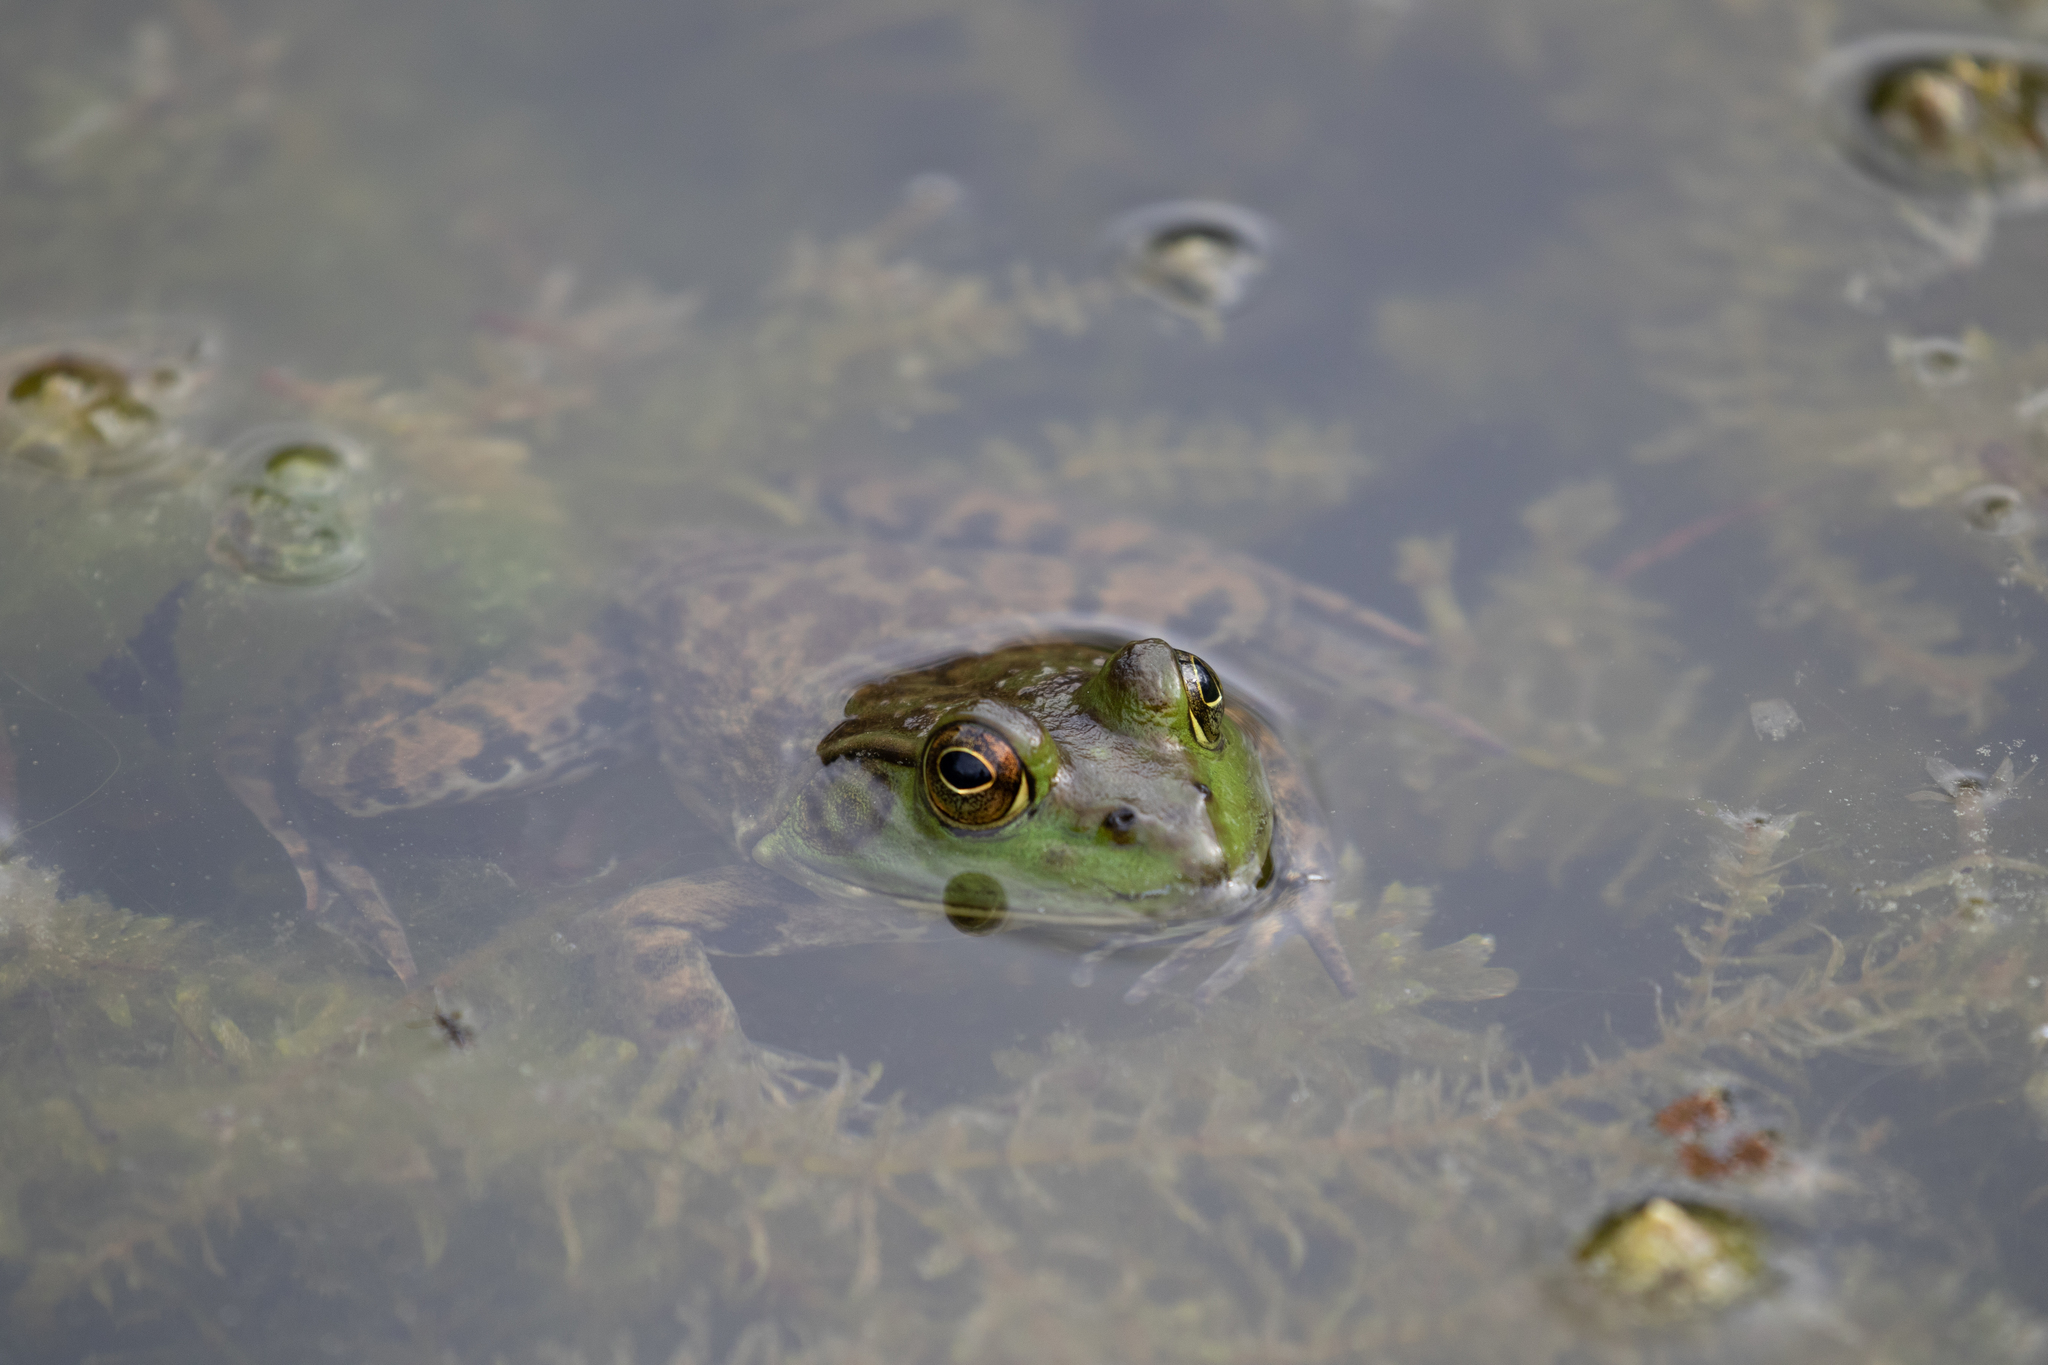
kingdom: Animalia
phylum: Chordata
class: Amphibia
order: Anura
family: Ranidae
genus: Lithobates
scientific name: Lithobates catesbeianus
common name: American bullfrog
